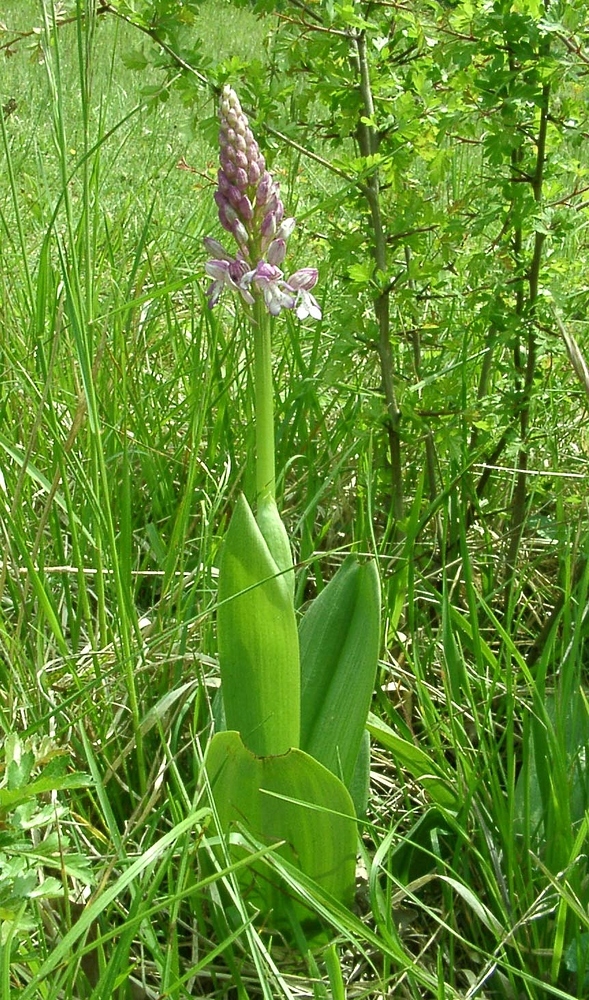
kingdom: Plantae
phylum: Tracheophyta
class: Liliopsida
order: Asparagales
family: Orchidaceae
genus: Orchis
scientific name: Orchis hybrida
